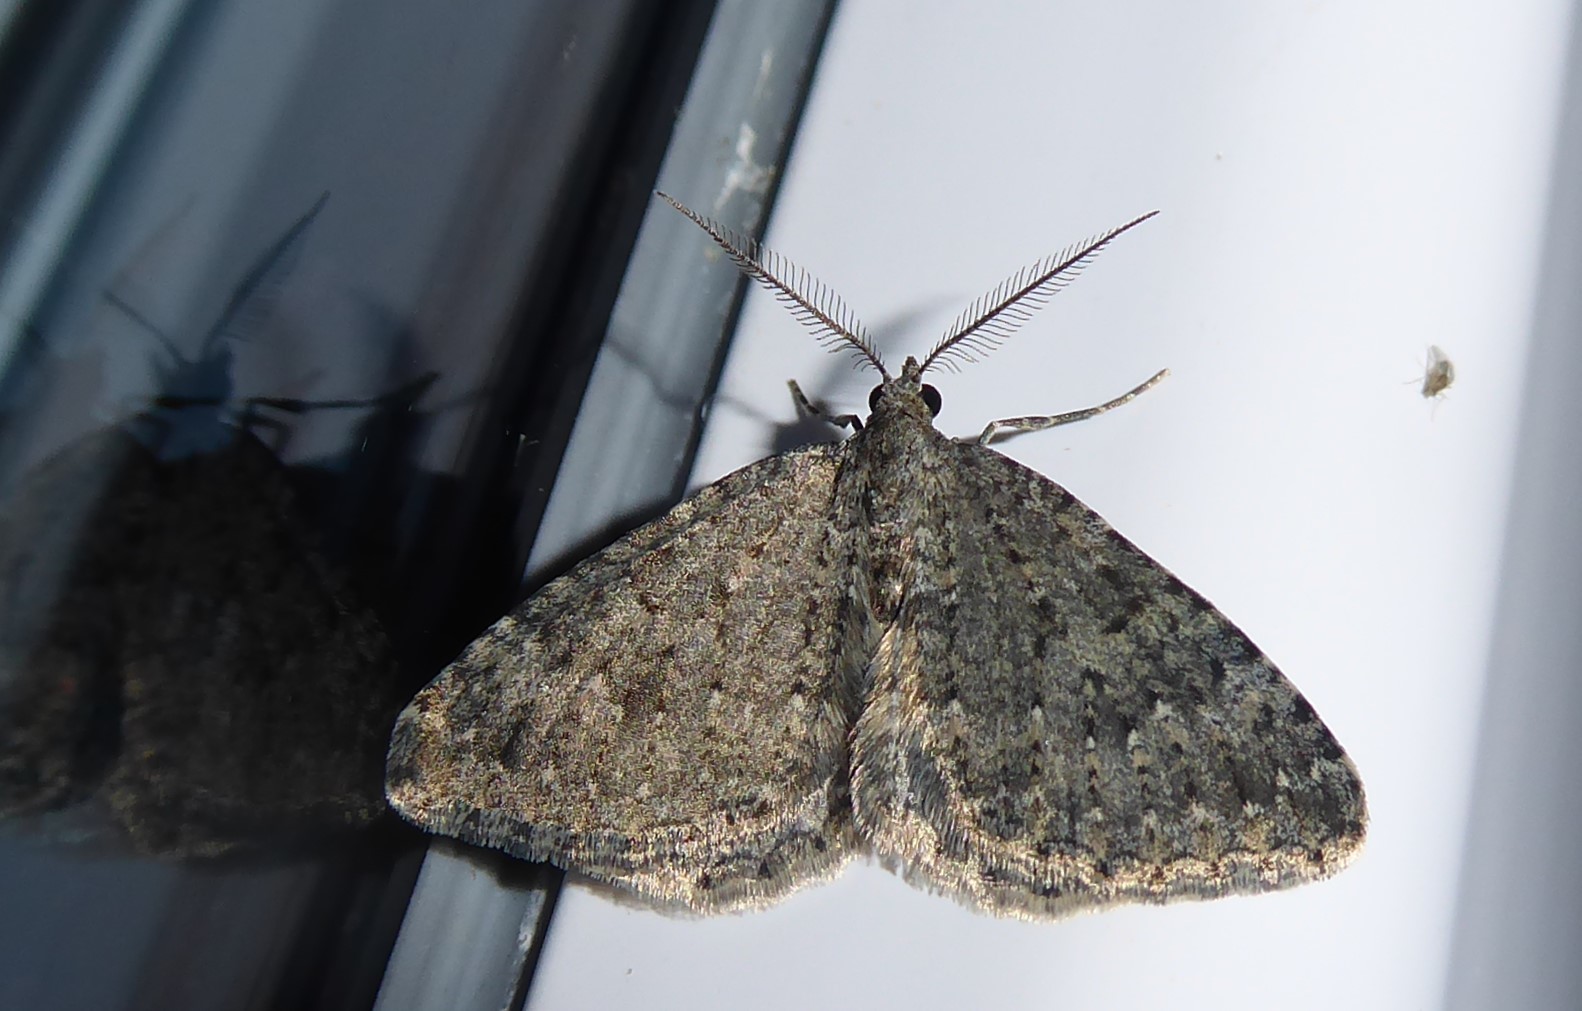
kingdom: Animalia
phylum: Arthropoda
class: Insecta
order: Lepidoptera
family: Geometridae
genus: Helastia
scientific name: Helastia corcularia
